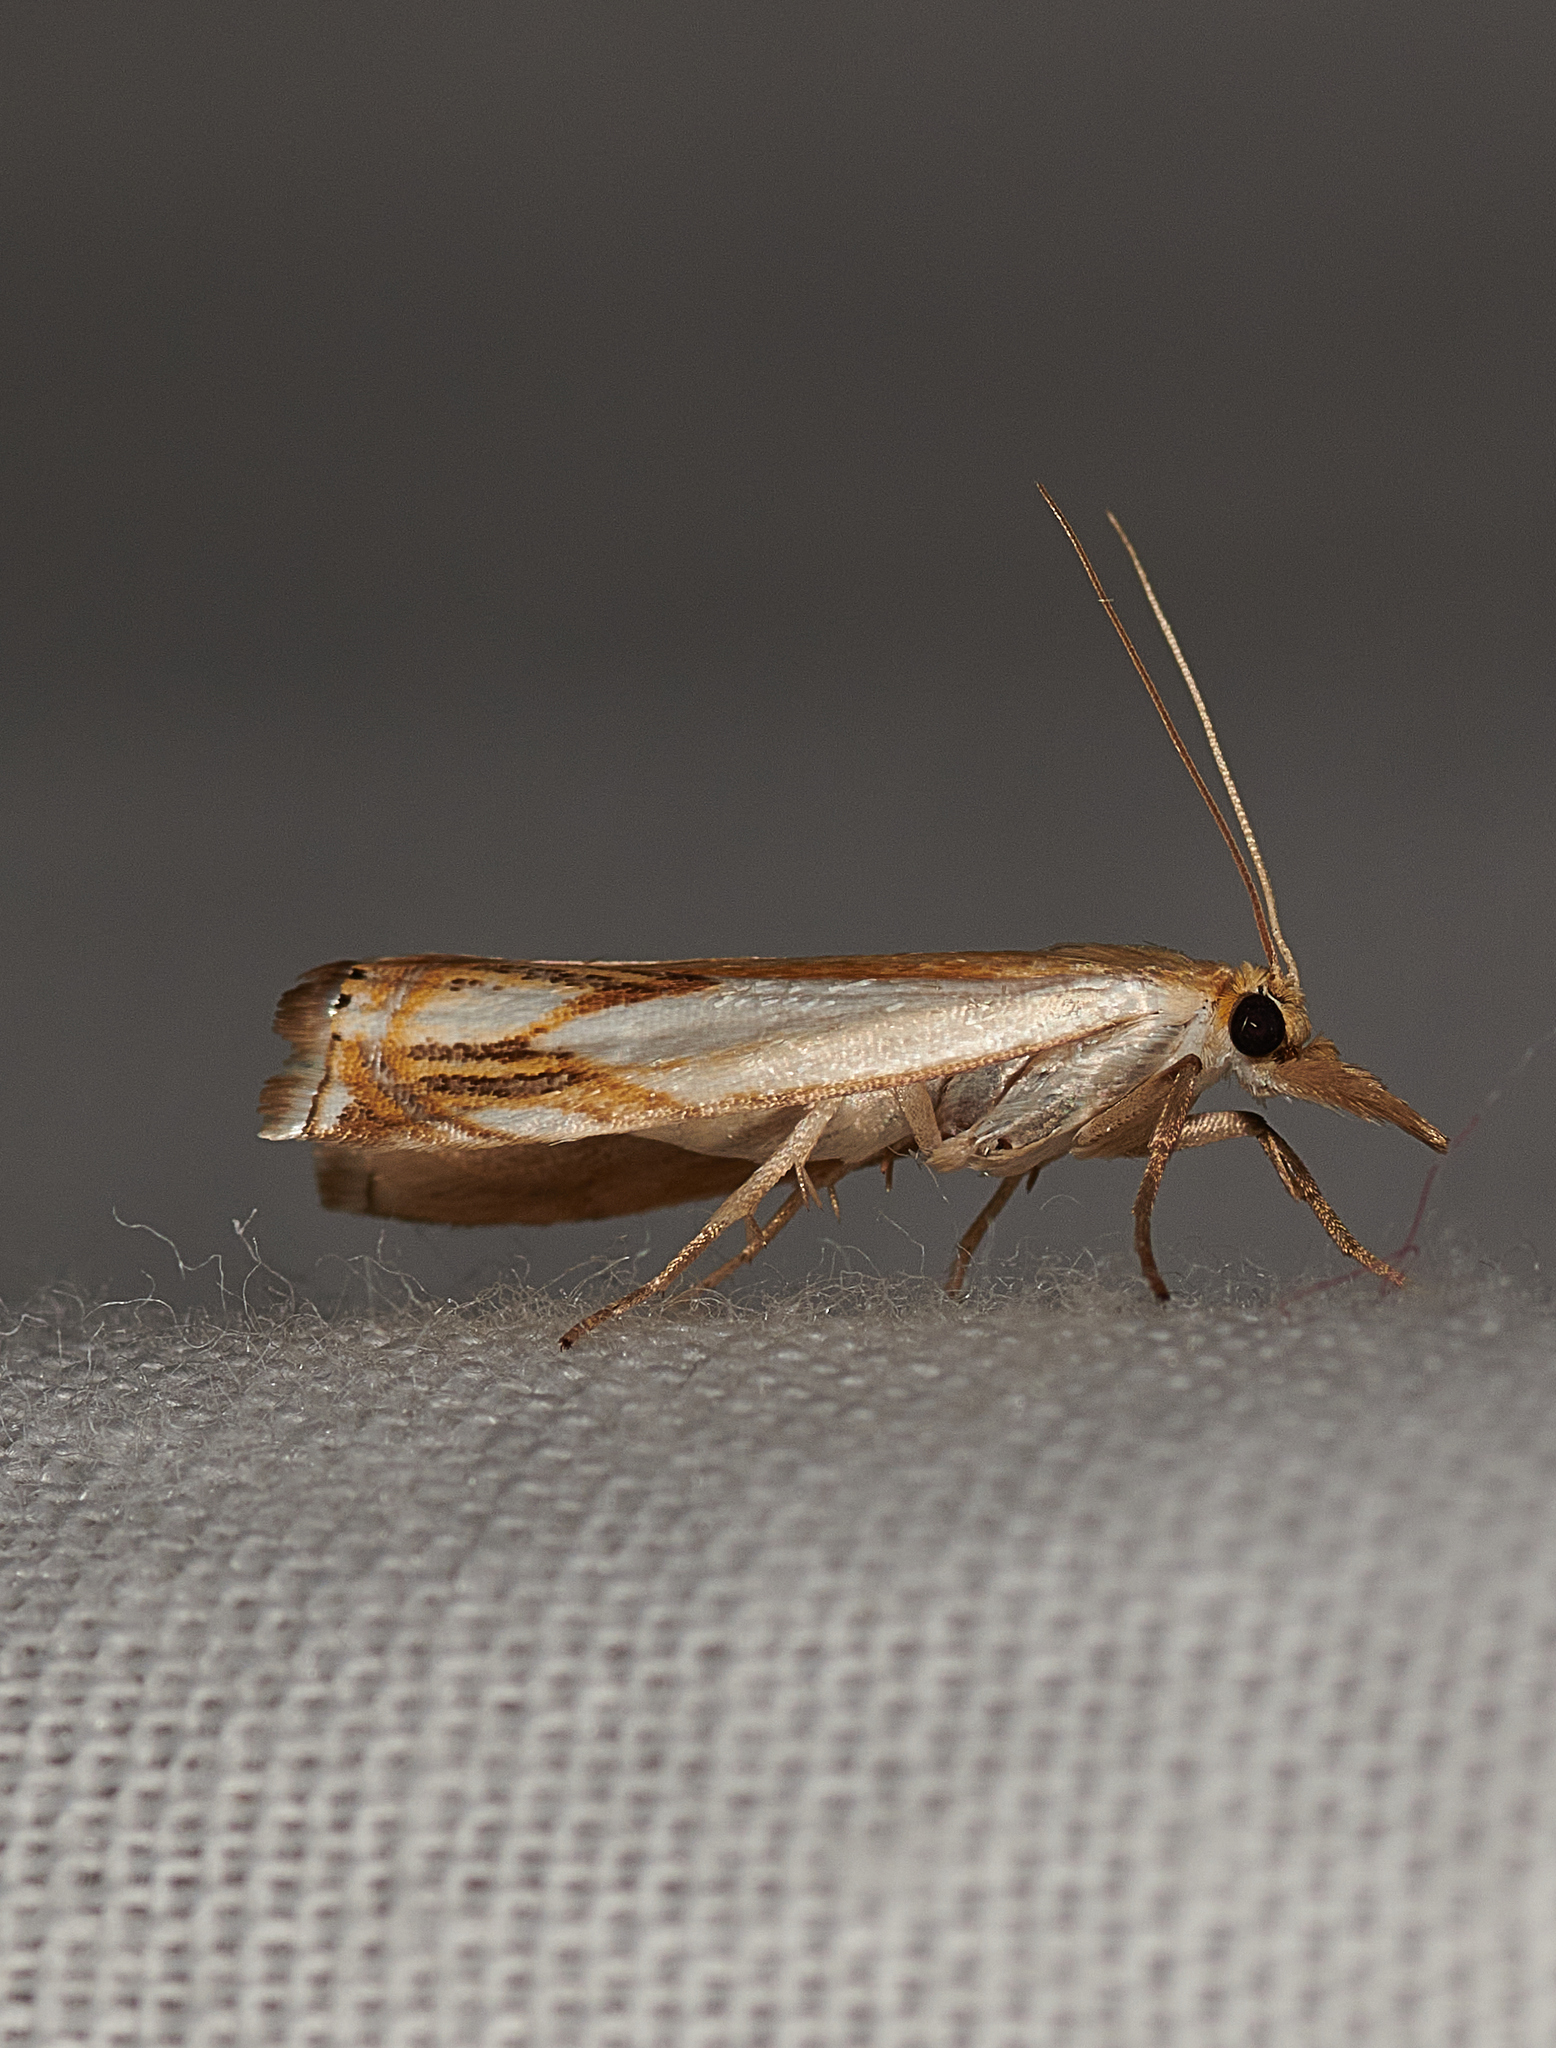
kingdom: Animalia
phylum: Arthropoda
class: Insecta
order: Lepidoptera
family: Crambidae
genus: Crambus
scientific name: Crambus agitatellus
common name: Double-banded grass-veneer
